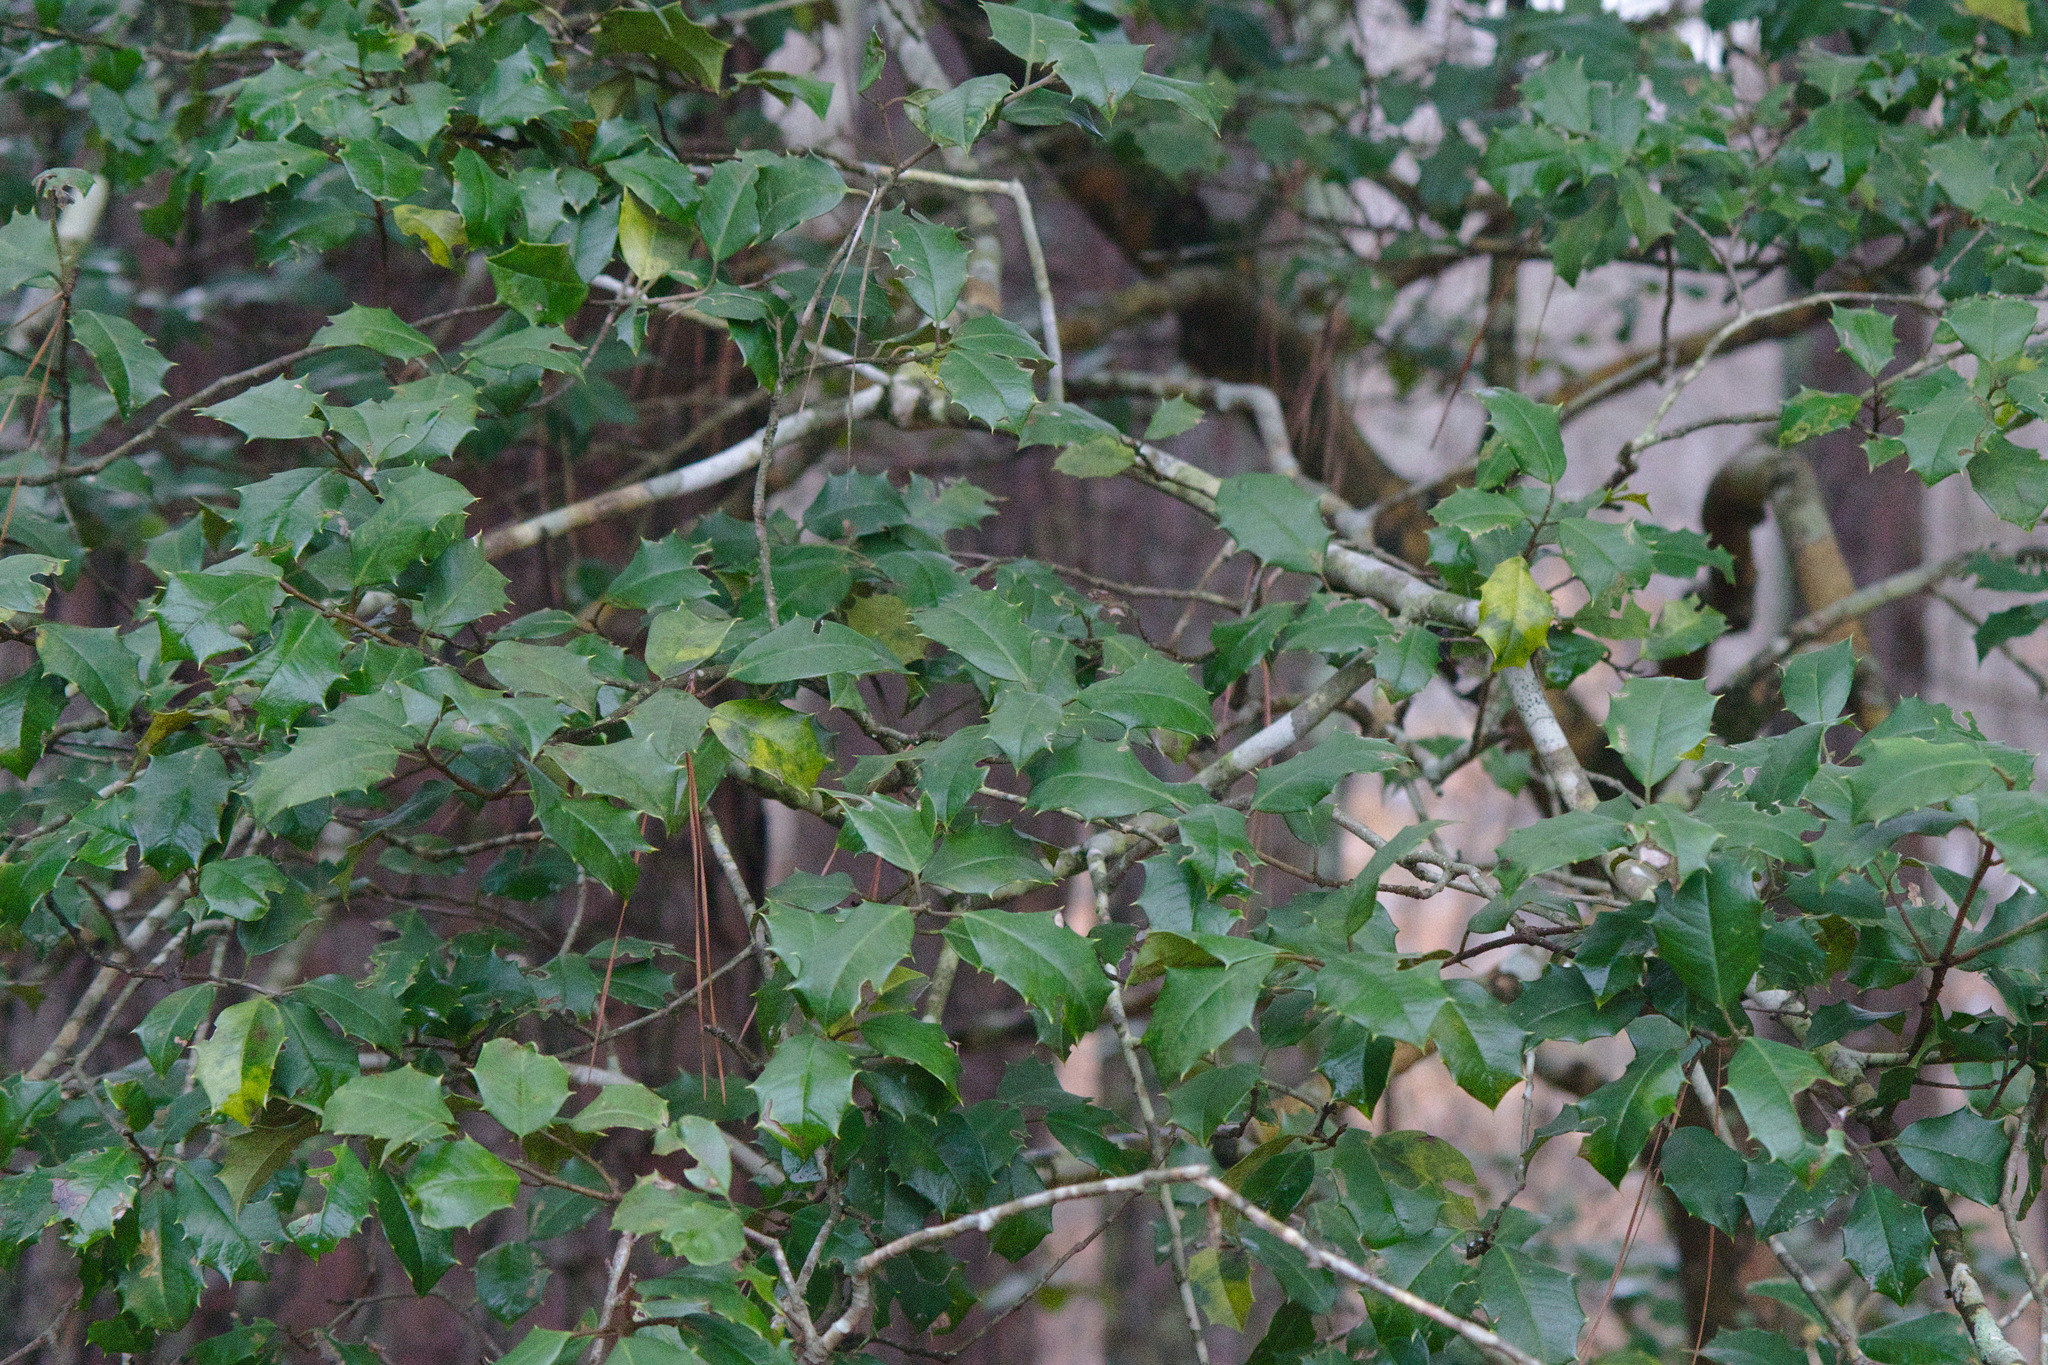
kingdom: Plantae
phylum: Tracheophyta
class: Magnoliopsida
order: Aquifoliales
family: Aquifoliaceae
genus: Ilex
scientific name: Ilex opaca
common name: American holly
